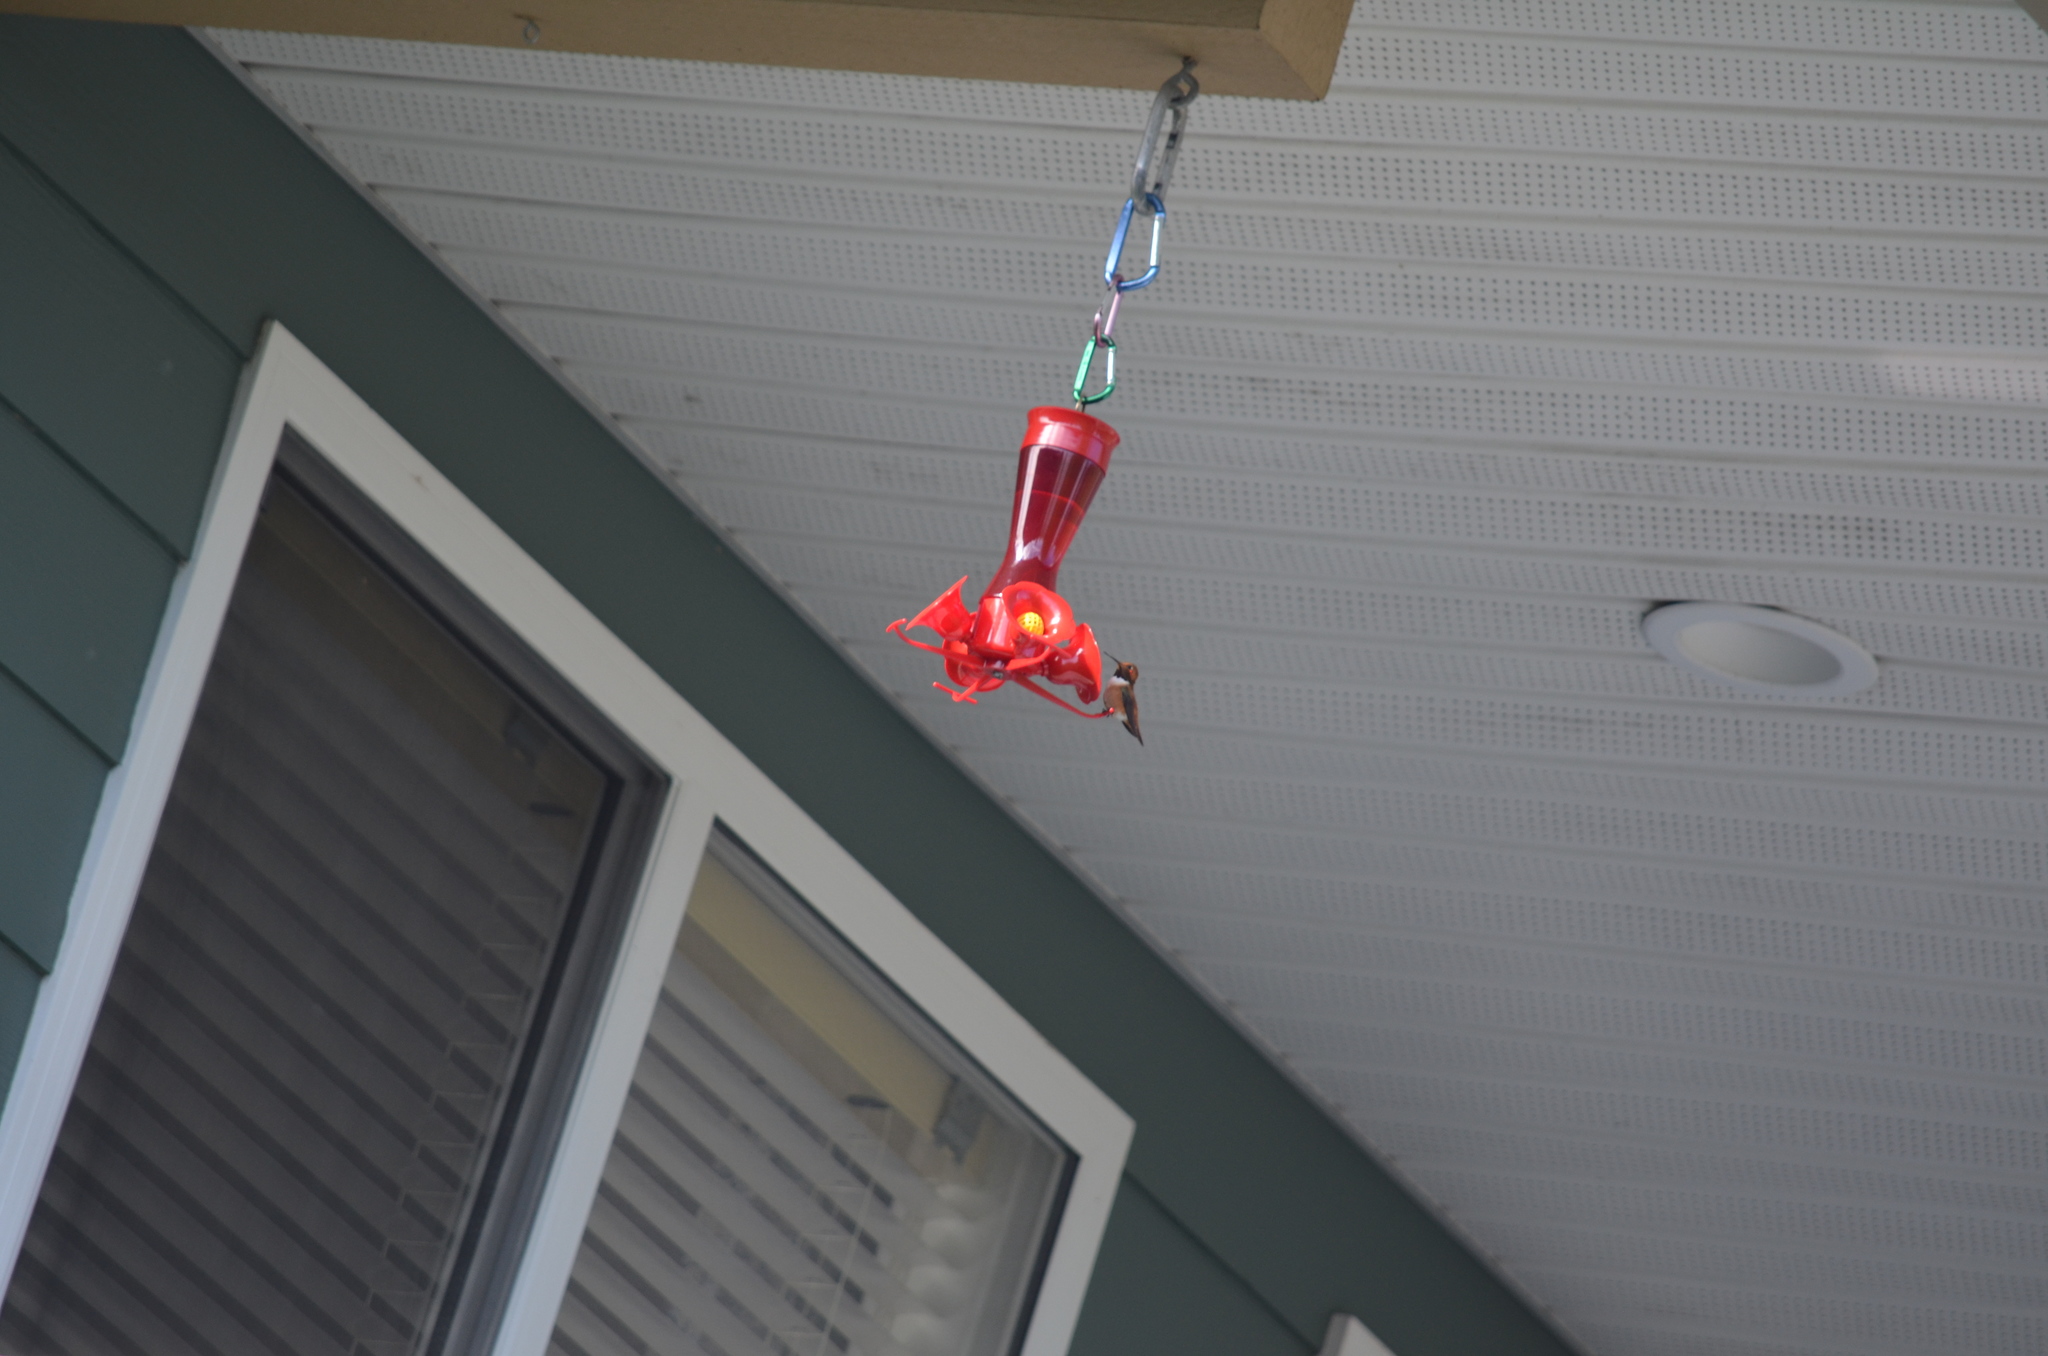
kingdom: Animalia
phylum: Chordata
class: Aves
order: Apodiformes
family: Trochilidae
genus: Selasphorus
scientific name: Selasphorus rufus
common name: Rufous hummingbird
